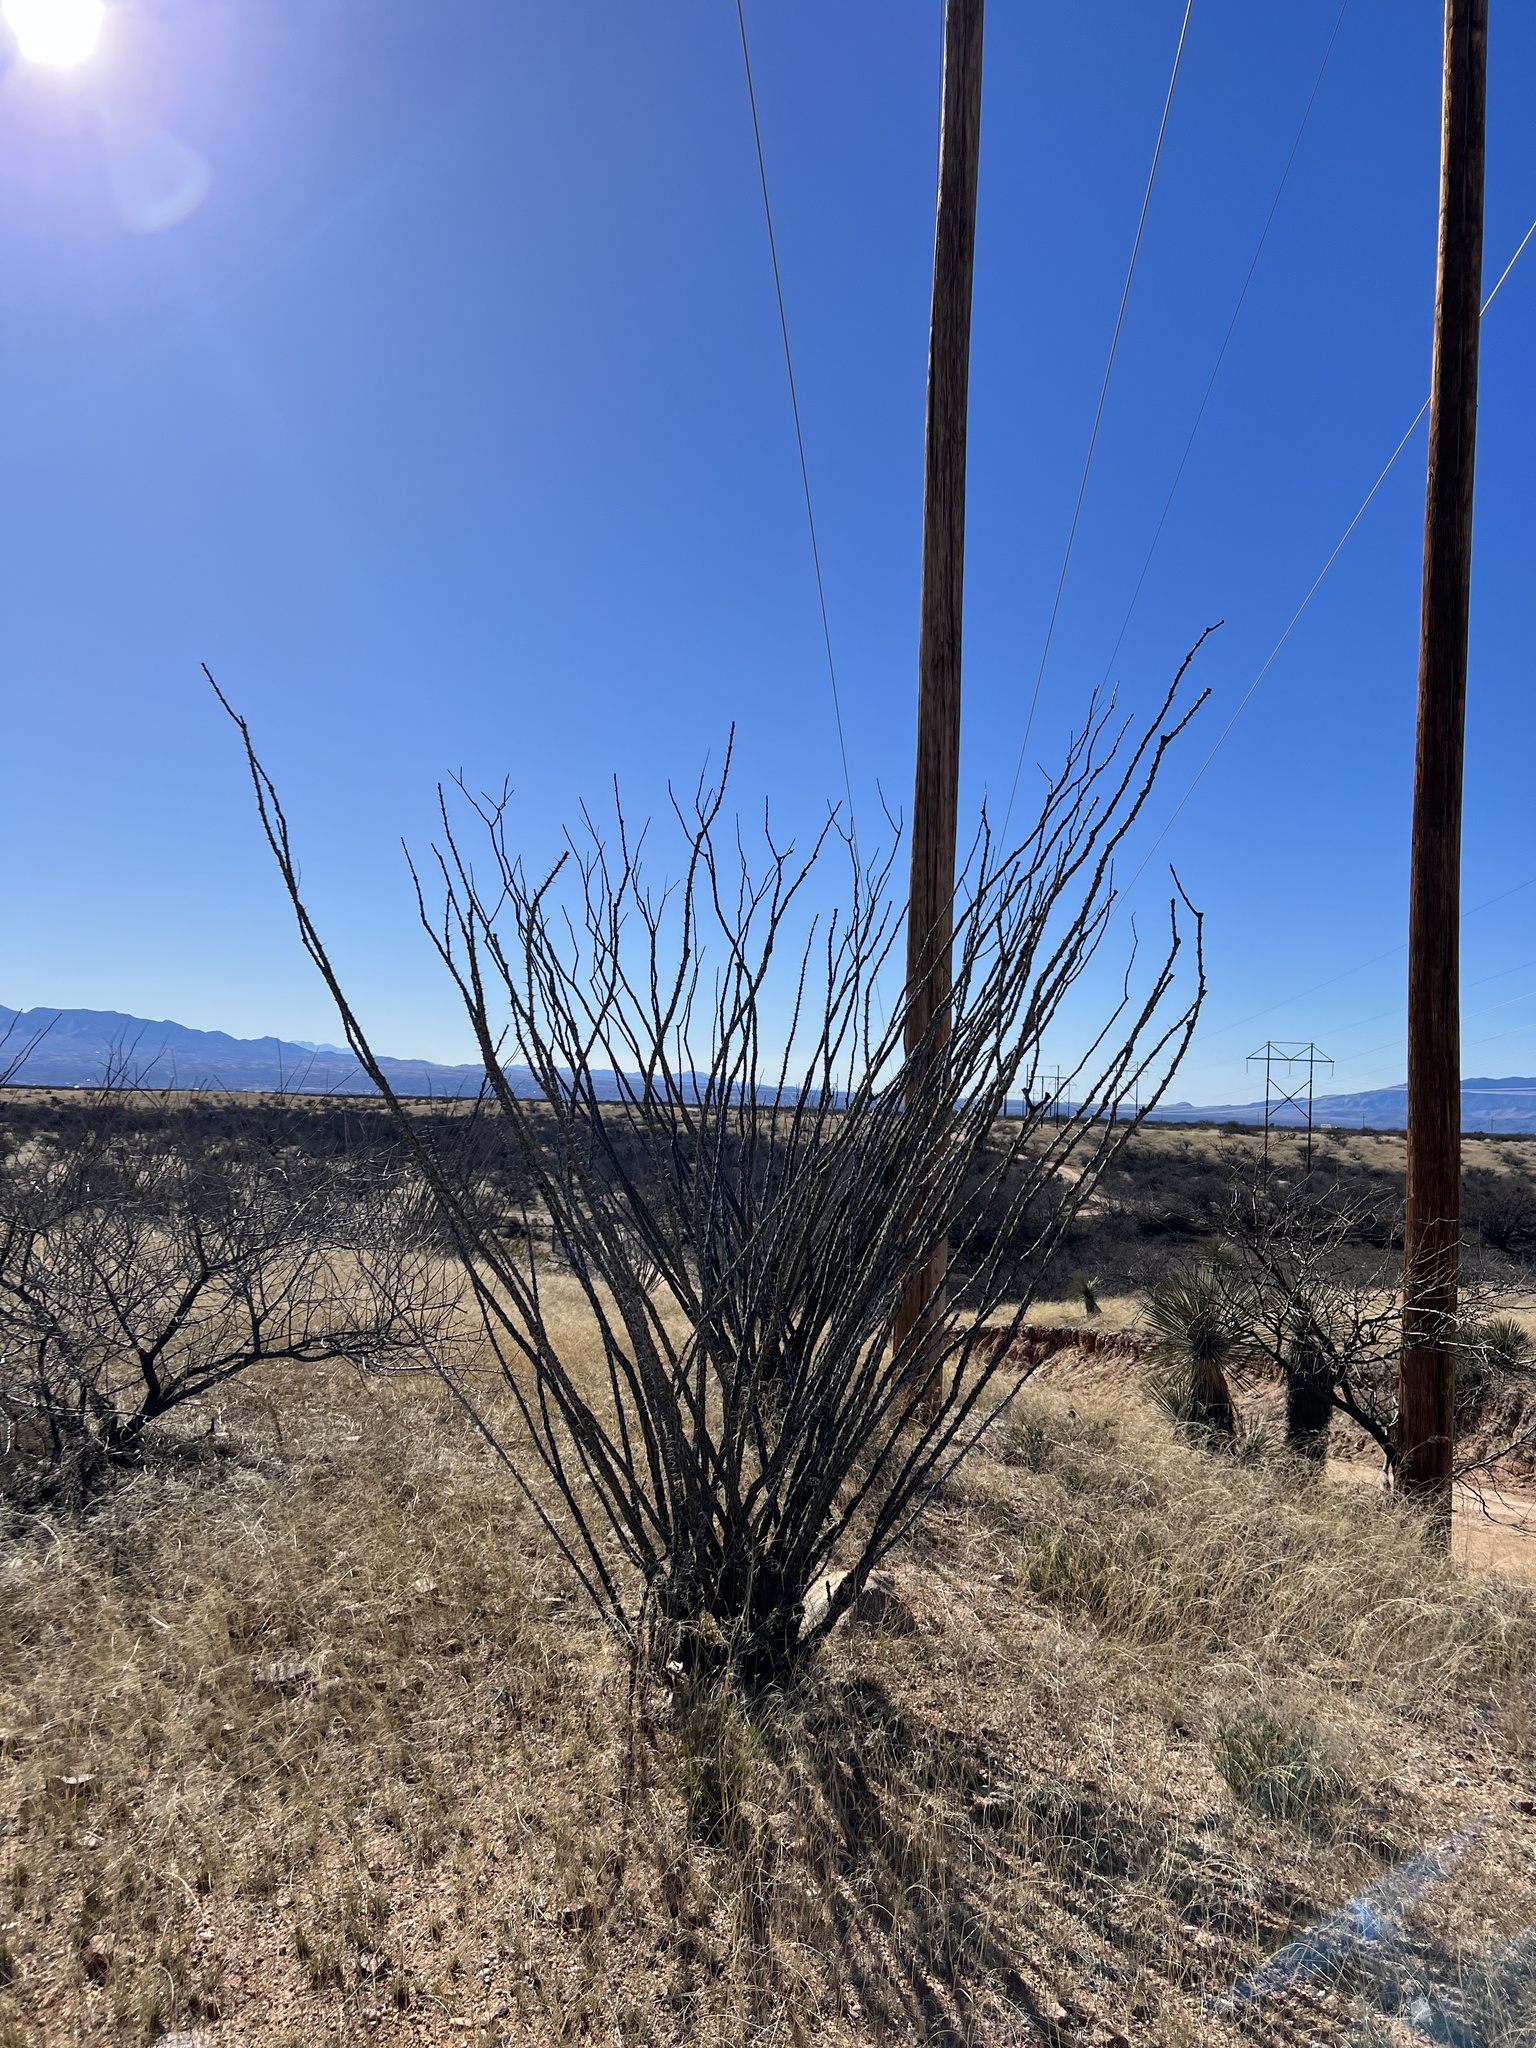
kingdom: Plantae
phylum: Tracheophyta
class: Magnoliopsida
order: Ericales
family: Fouquieriaceae
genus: Fouquieria
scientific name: Fouquieria splendens
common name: Vine-cactus
